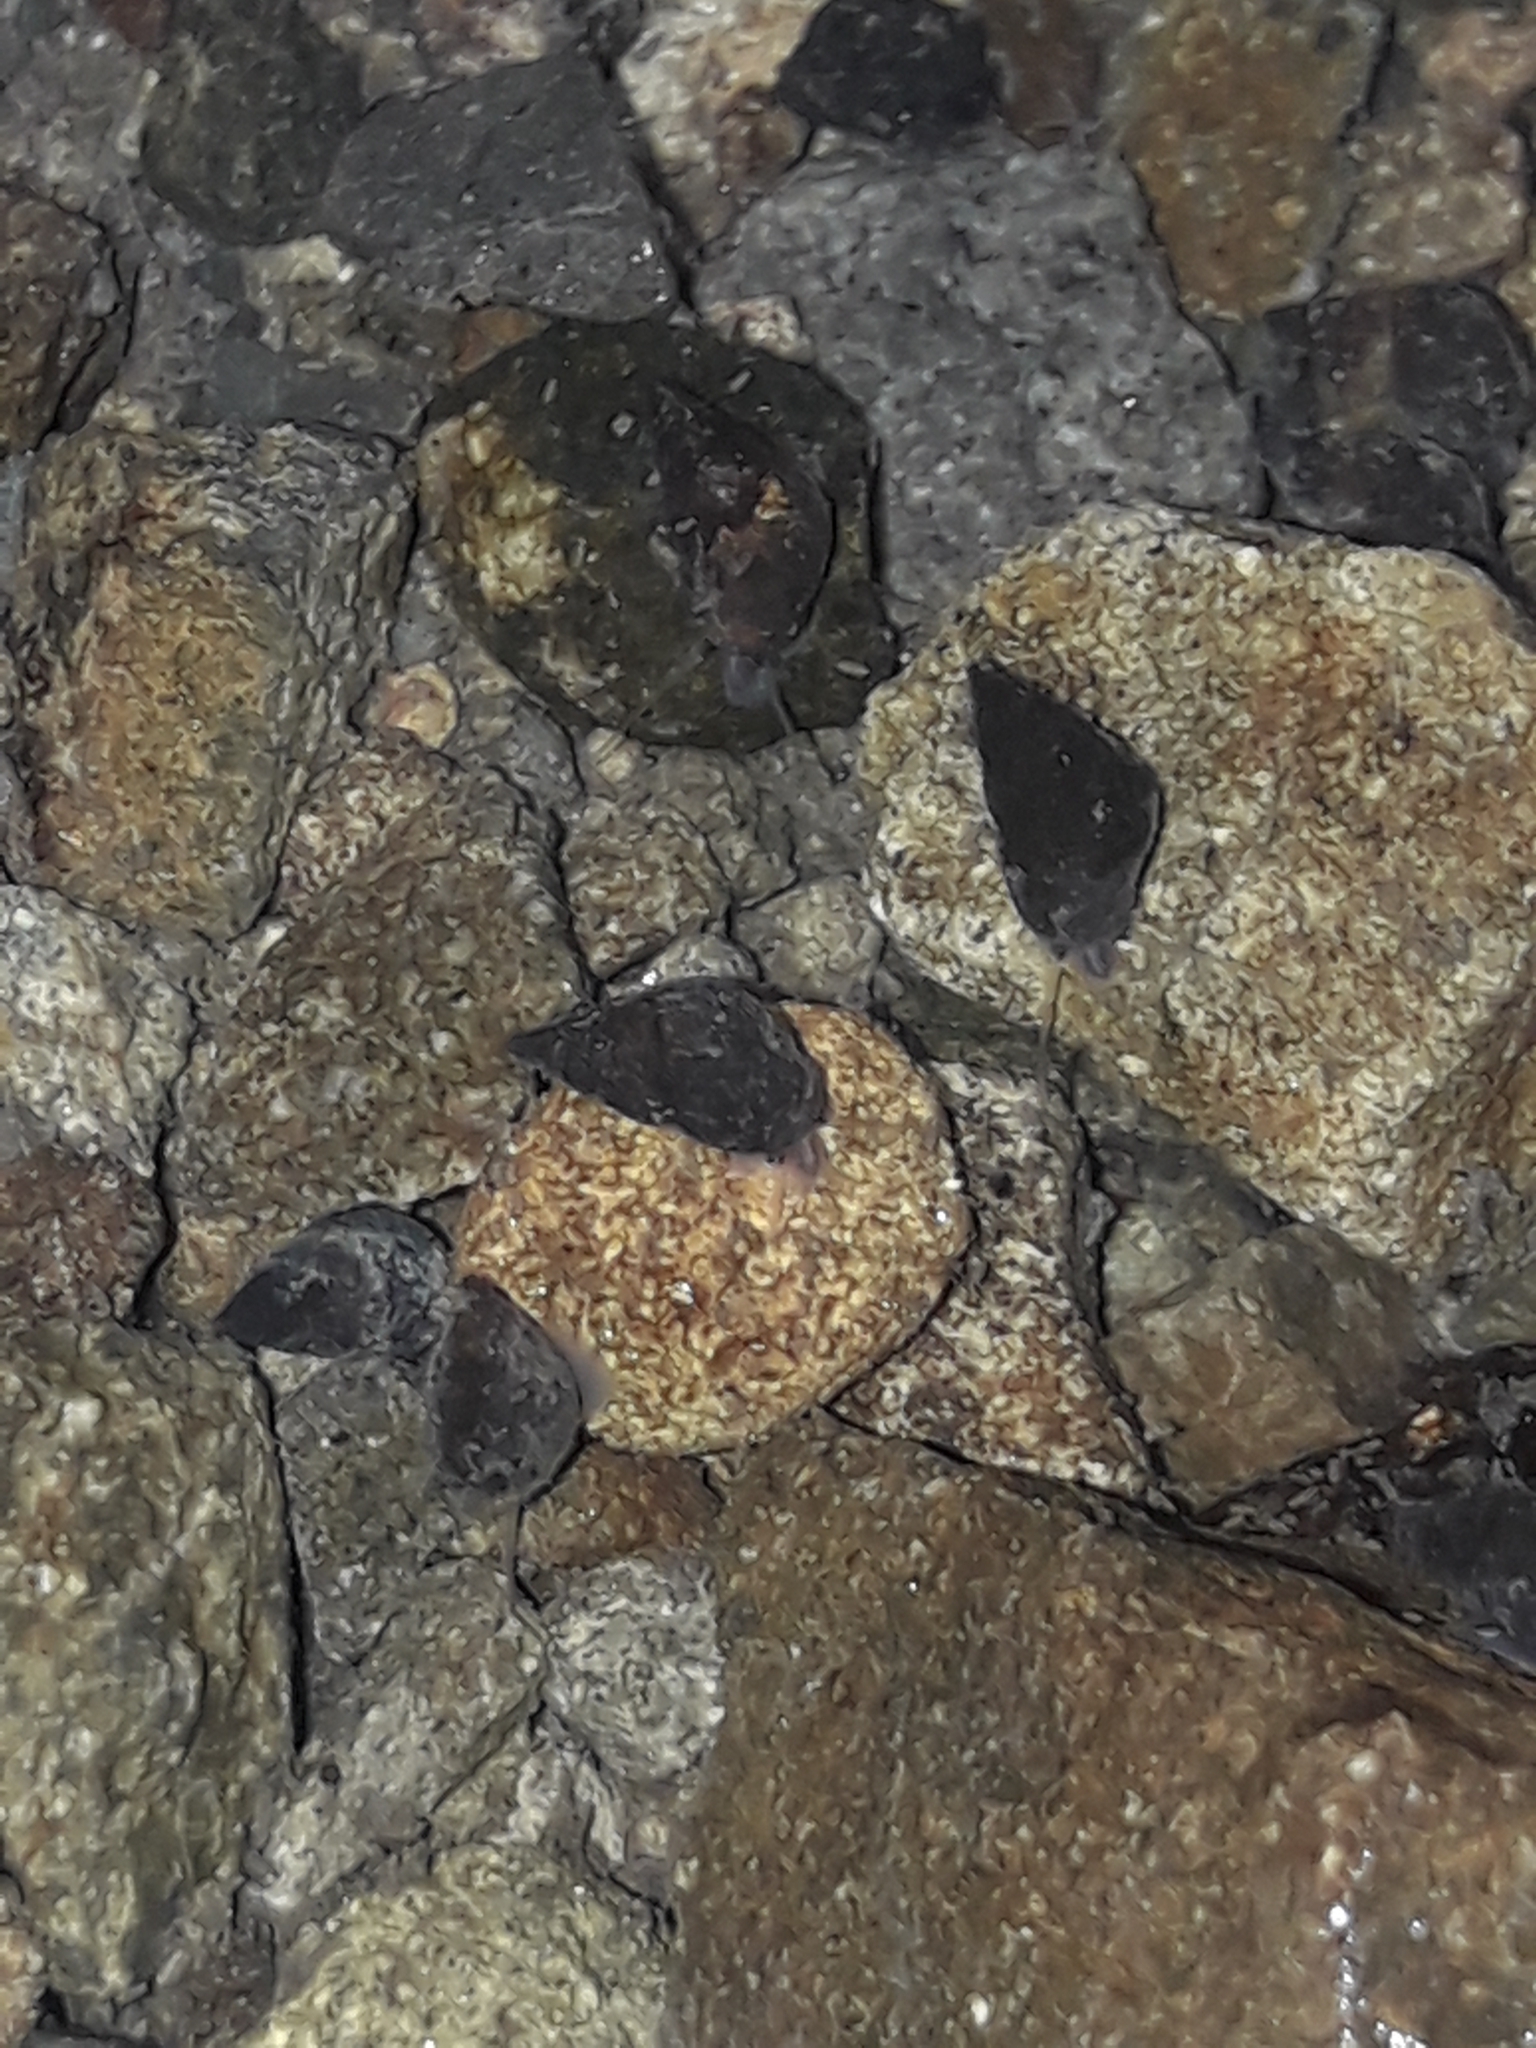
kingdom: Animalia
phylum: Mollusca
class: Gastropoda
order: Littorinimorpha
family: Tateidae
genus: Potamopyrgus
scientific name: Potamopyrgus antipodarum
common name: Jenkins' spire snail
